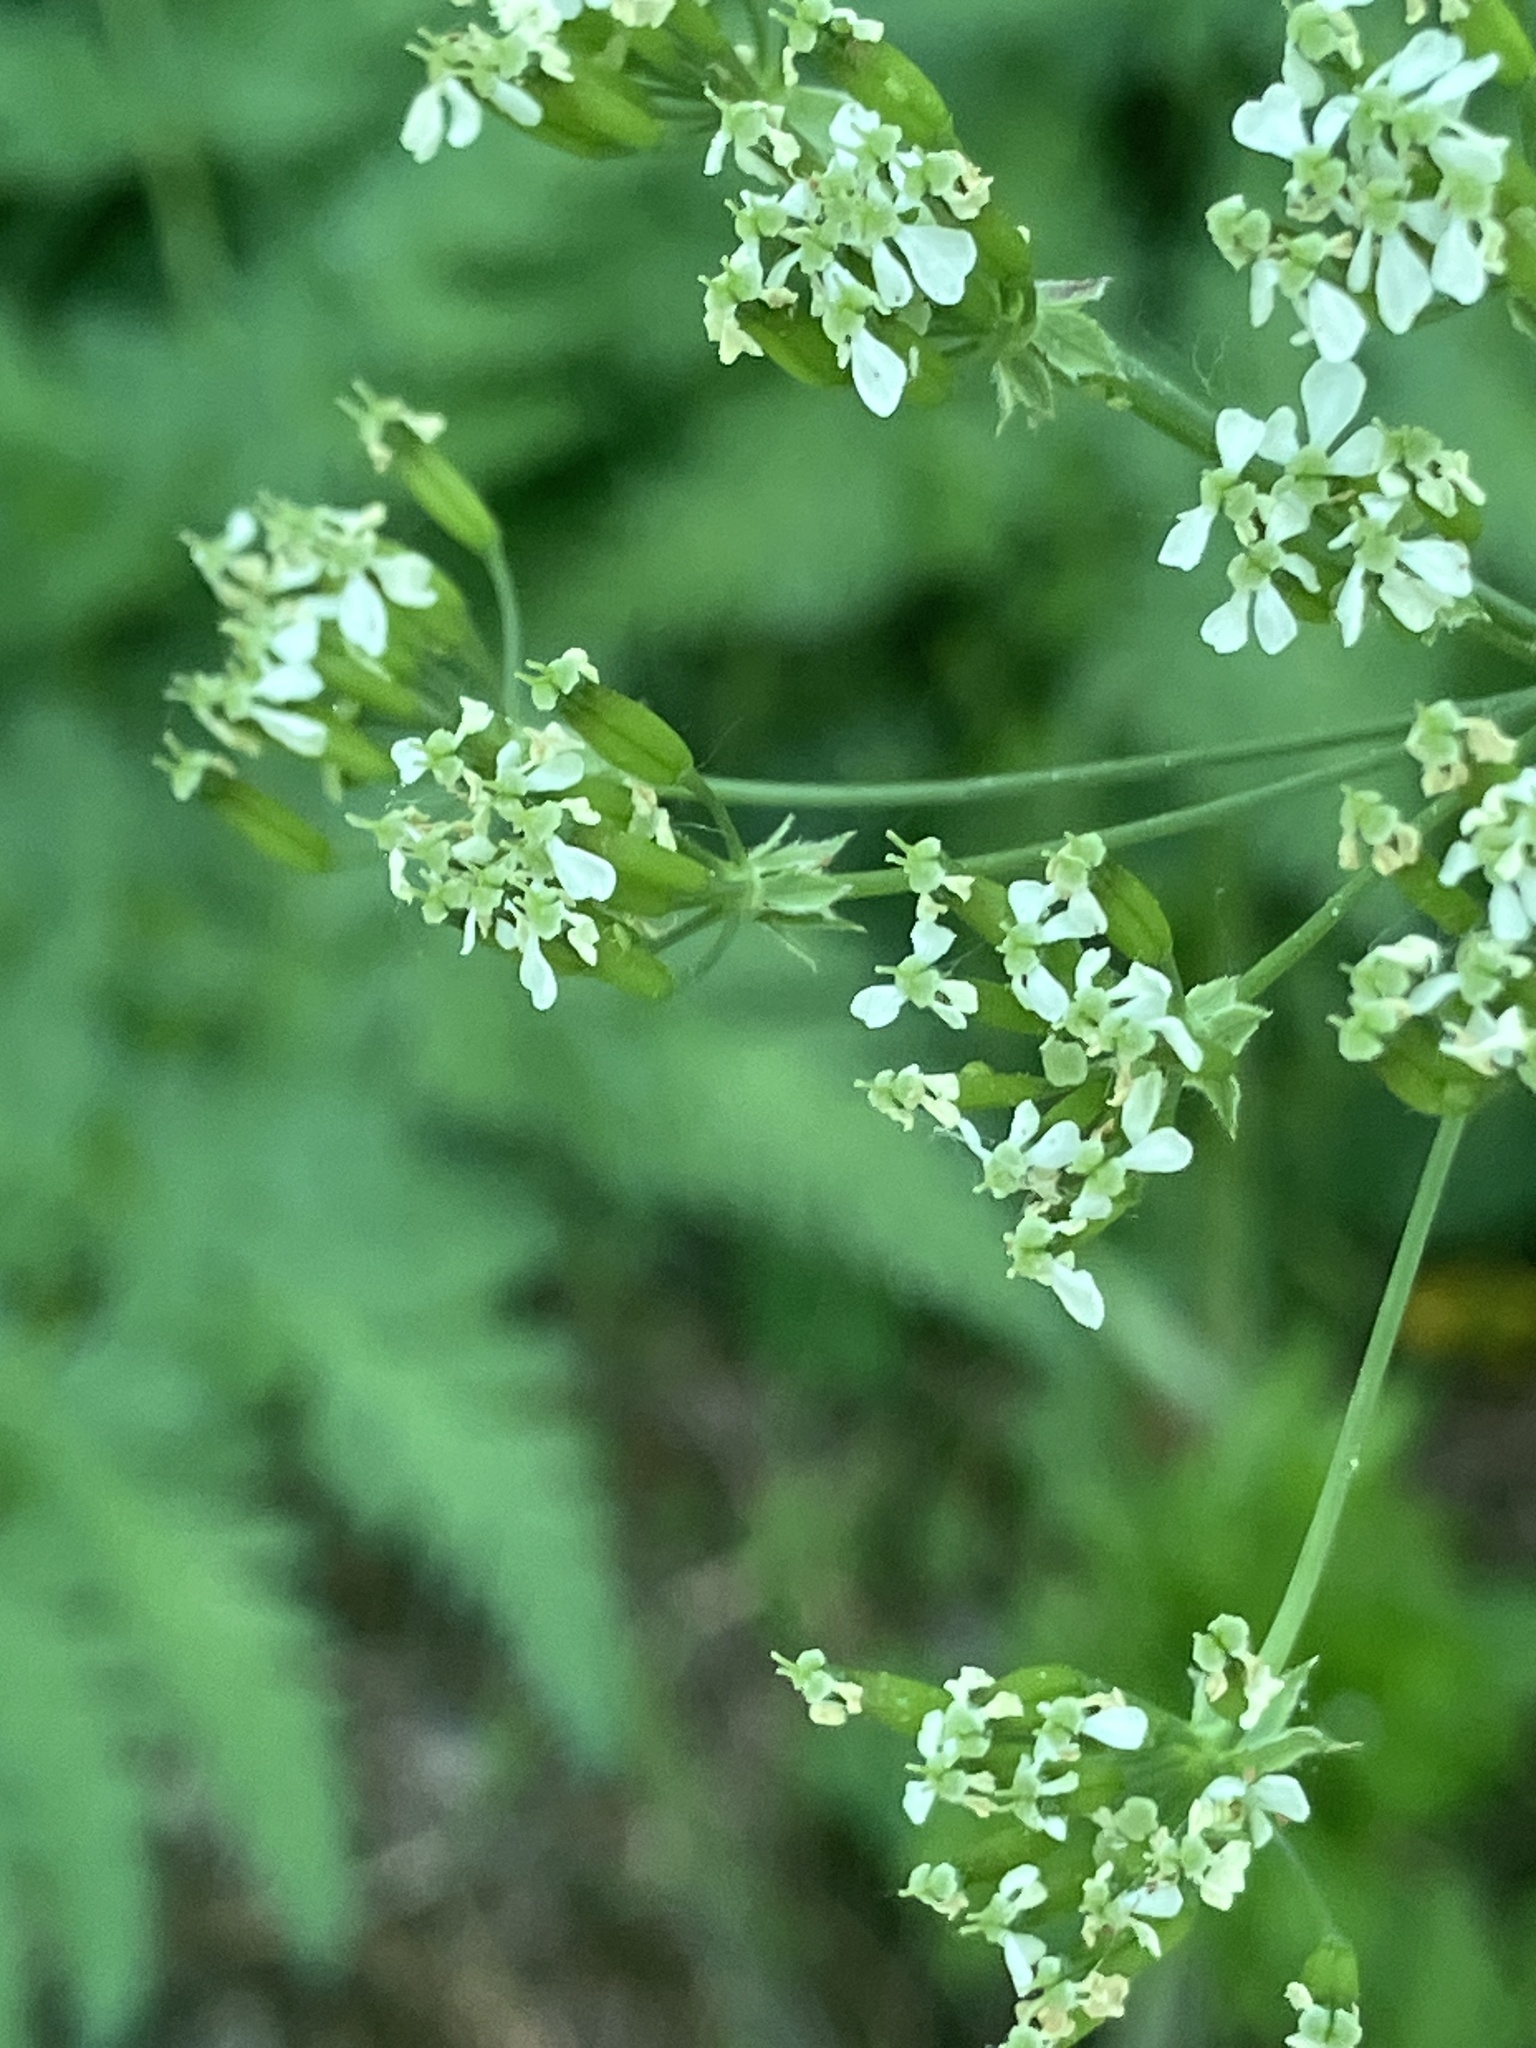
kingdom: Plantae
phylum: Tracheophyta
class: Magnoliopsida
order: Apiales
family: Apiaceae
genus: Anthriscus
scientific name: Anthriscus sylvestris
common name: Cow parsley
